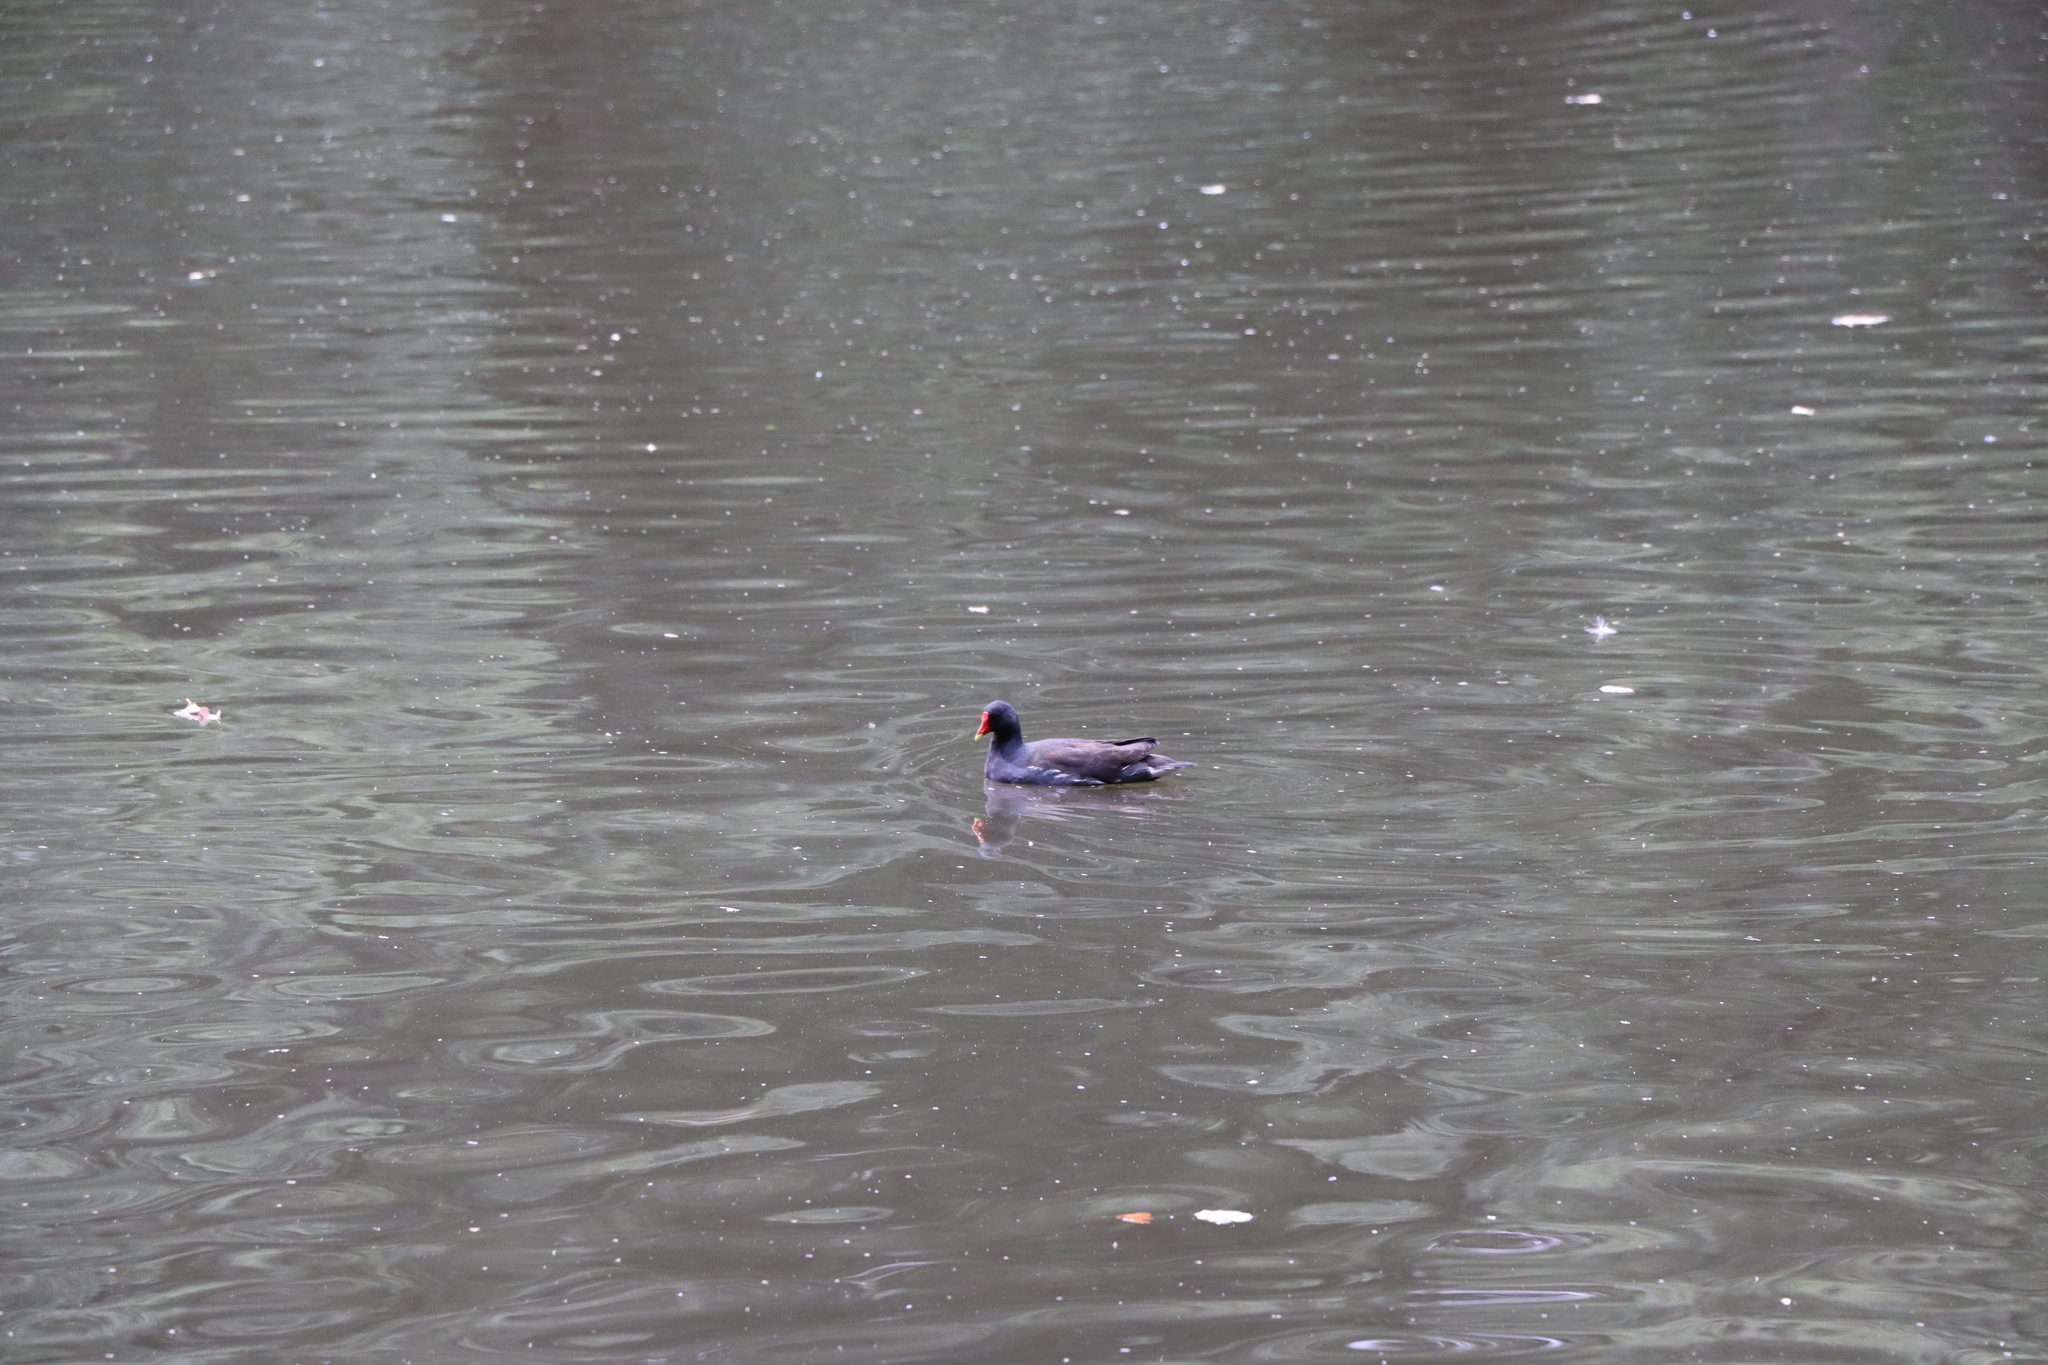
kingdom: Animalia
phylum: Chordata
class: Aves
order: Gruiformes
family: Rallidae
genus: Gallinula
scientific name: Gallinula chloropus
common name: Common moorhen
